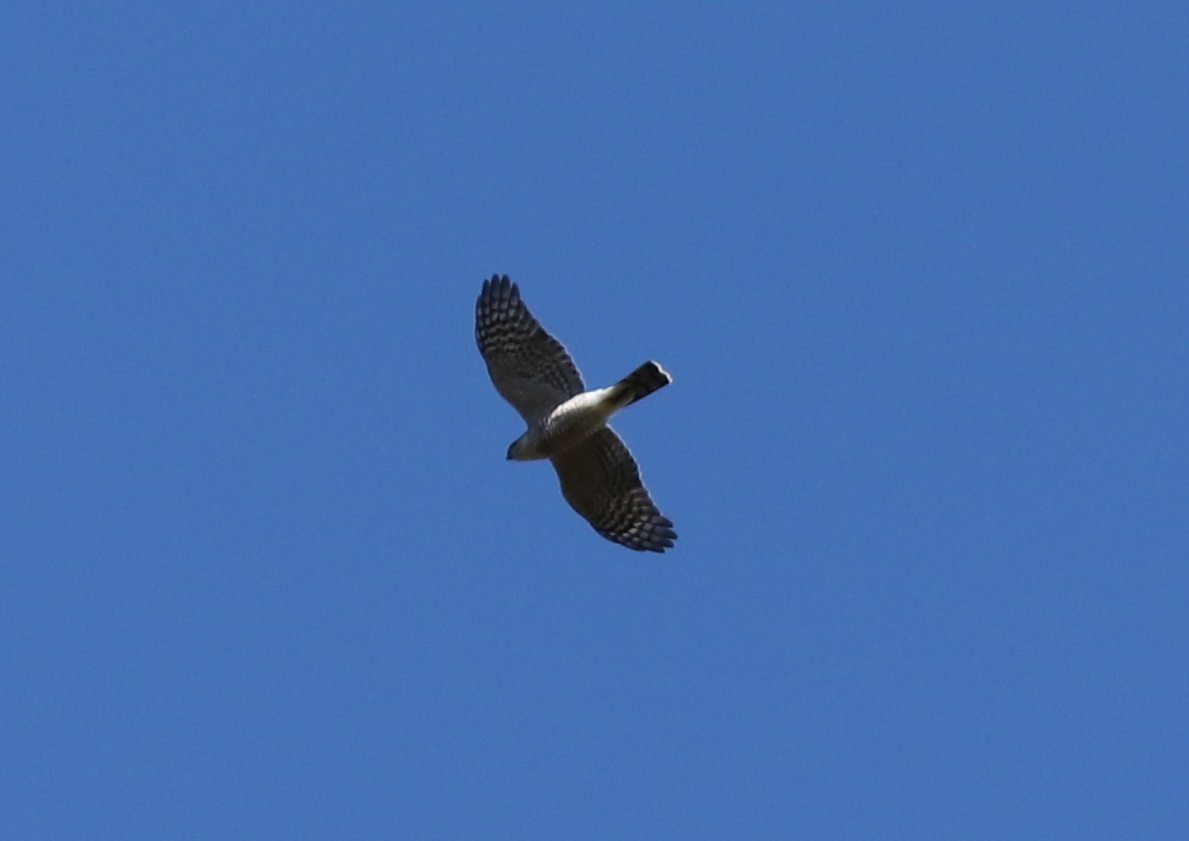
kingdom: Animalia
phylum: Chordata
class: Aves
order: Accipitriformes
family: Accipitridae
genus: Accipiter
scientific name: Accipiter striatus
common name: Sharp-shinned hawk
